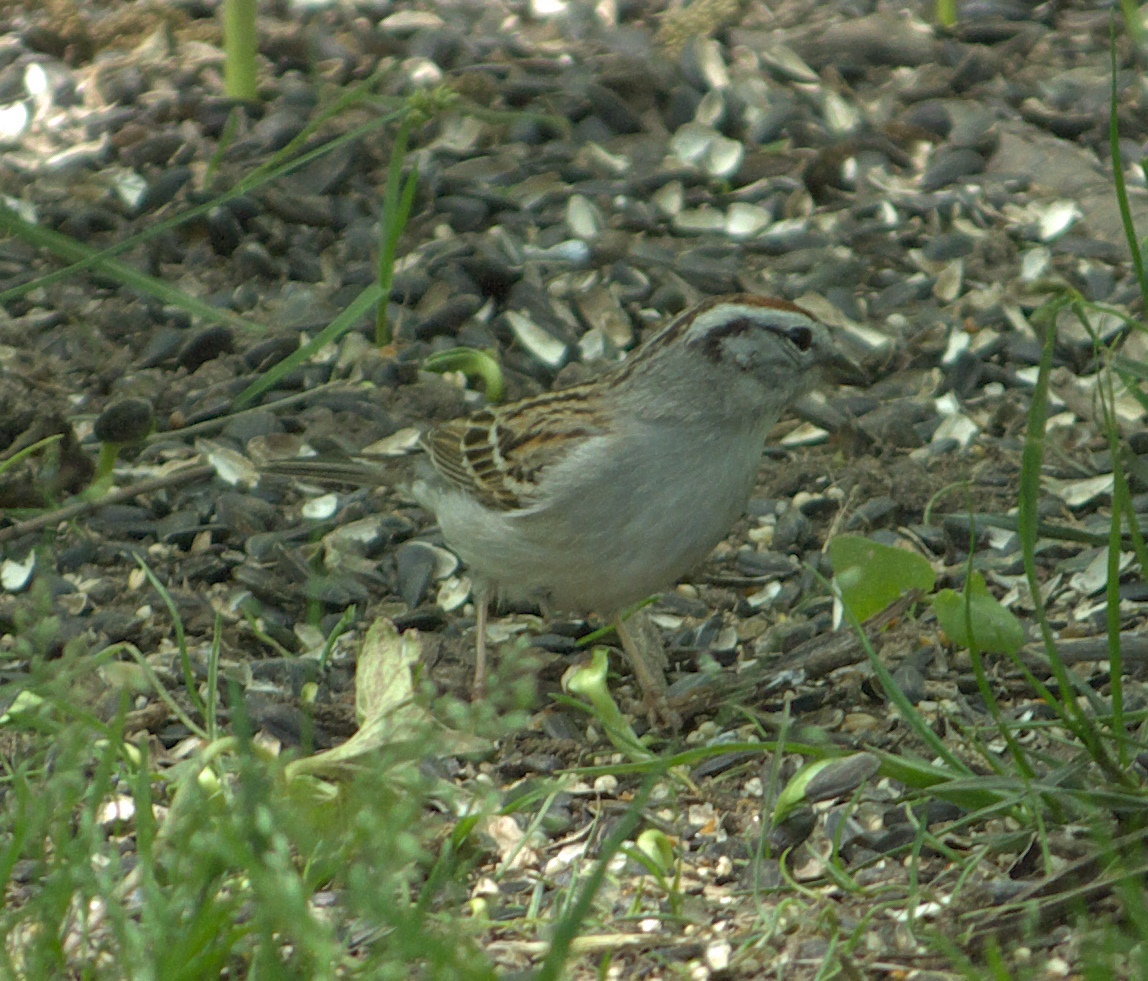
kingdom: Animalia
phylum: Chordata
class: Aves
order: Passeriformes
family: Passerellidae
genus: Spizella
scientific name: Spizella passerina
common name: Chipping sparrow
